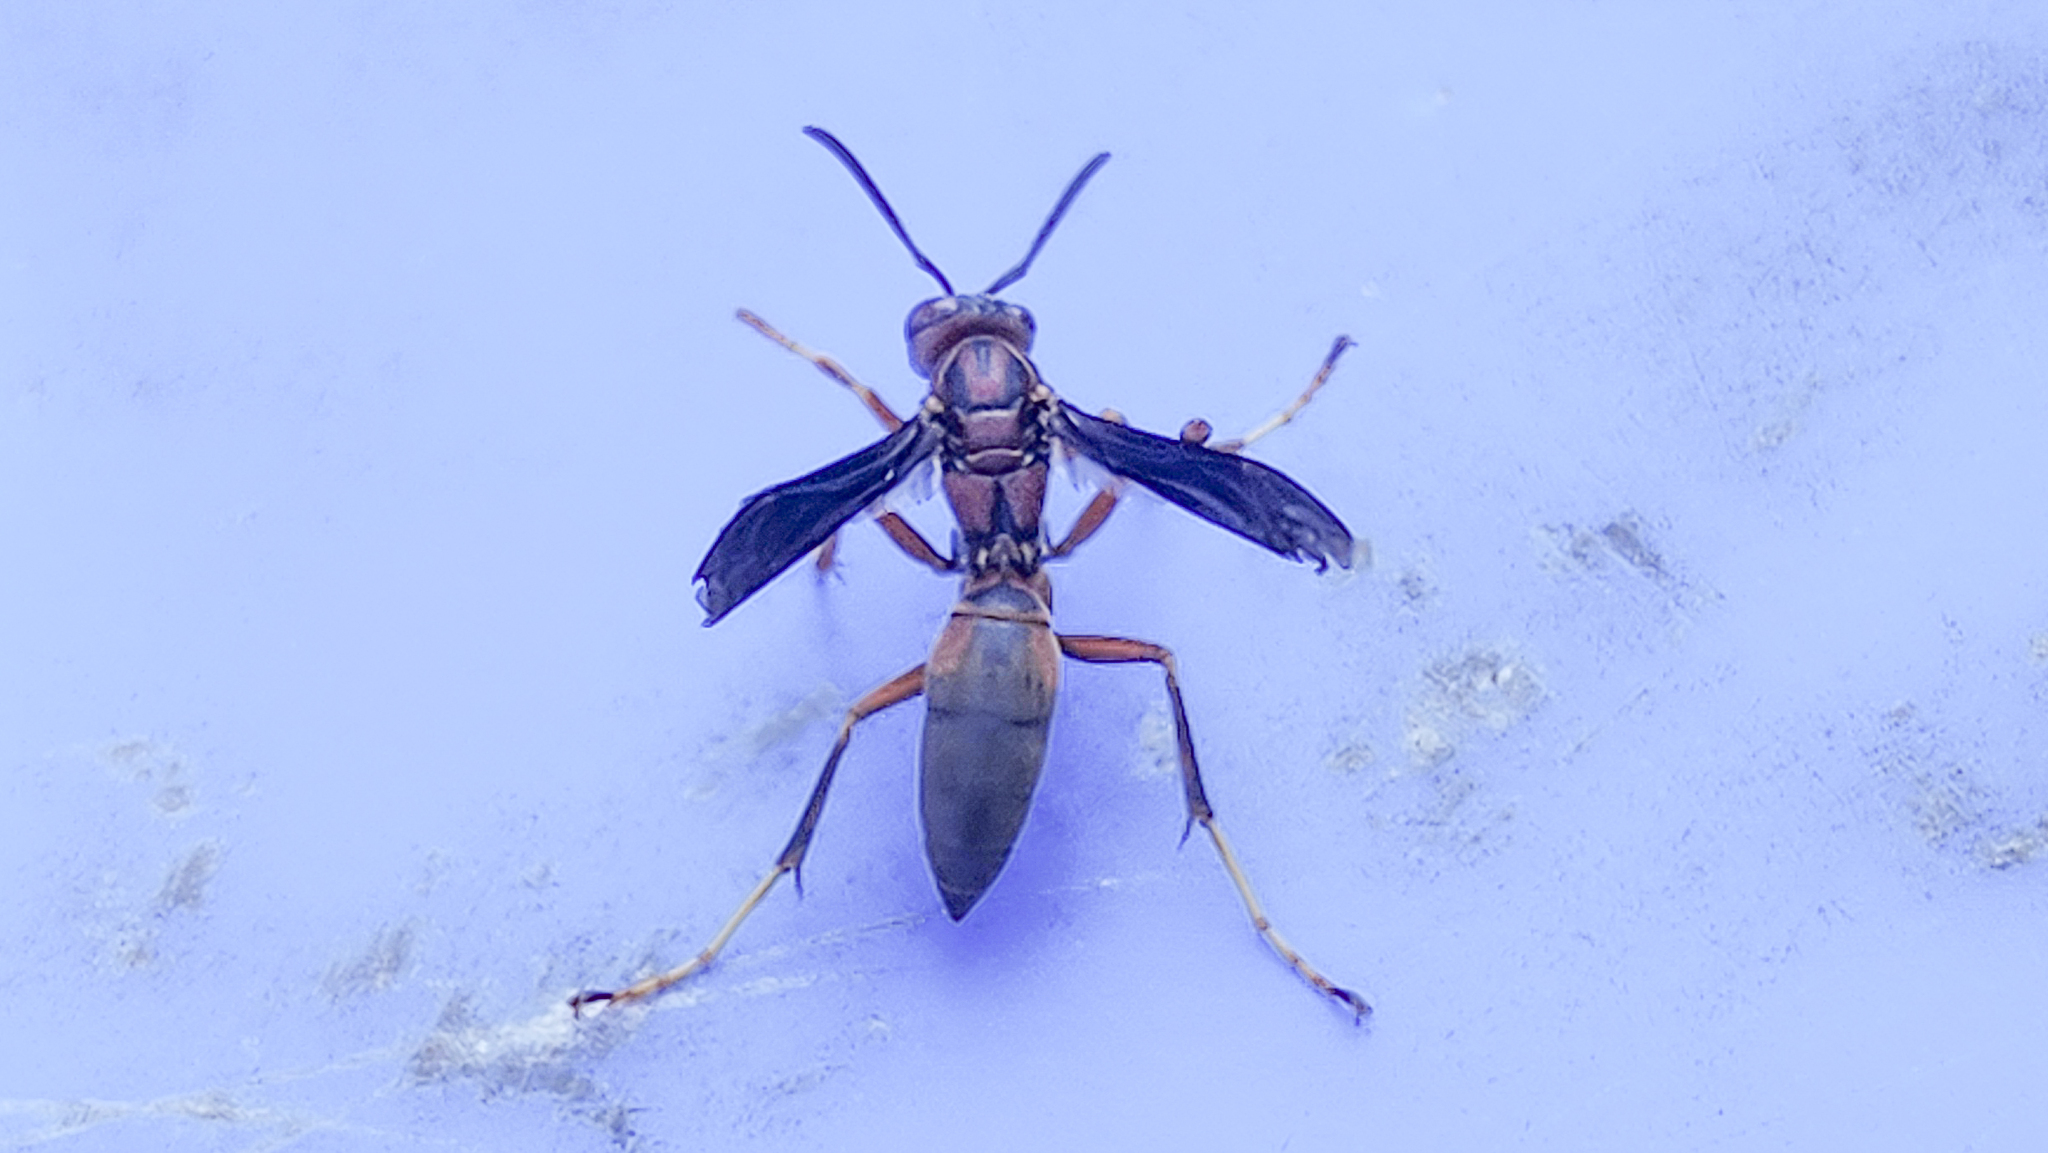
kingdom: Animalia
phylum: Arthropoda
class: Insecta
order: Hymenoptera
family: Vespidae
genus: Fuscopolistes
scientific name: Fuscopolistes
